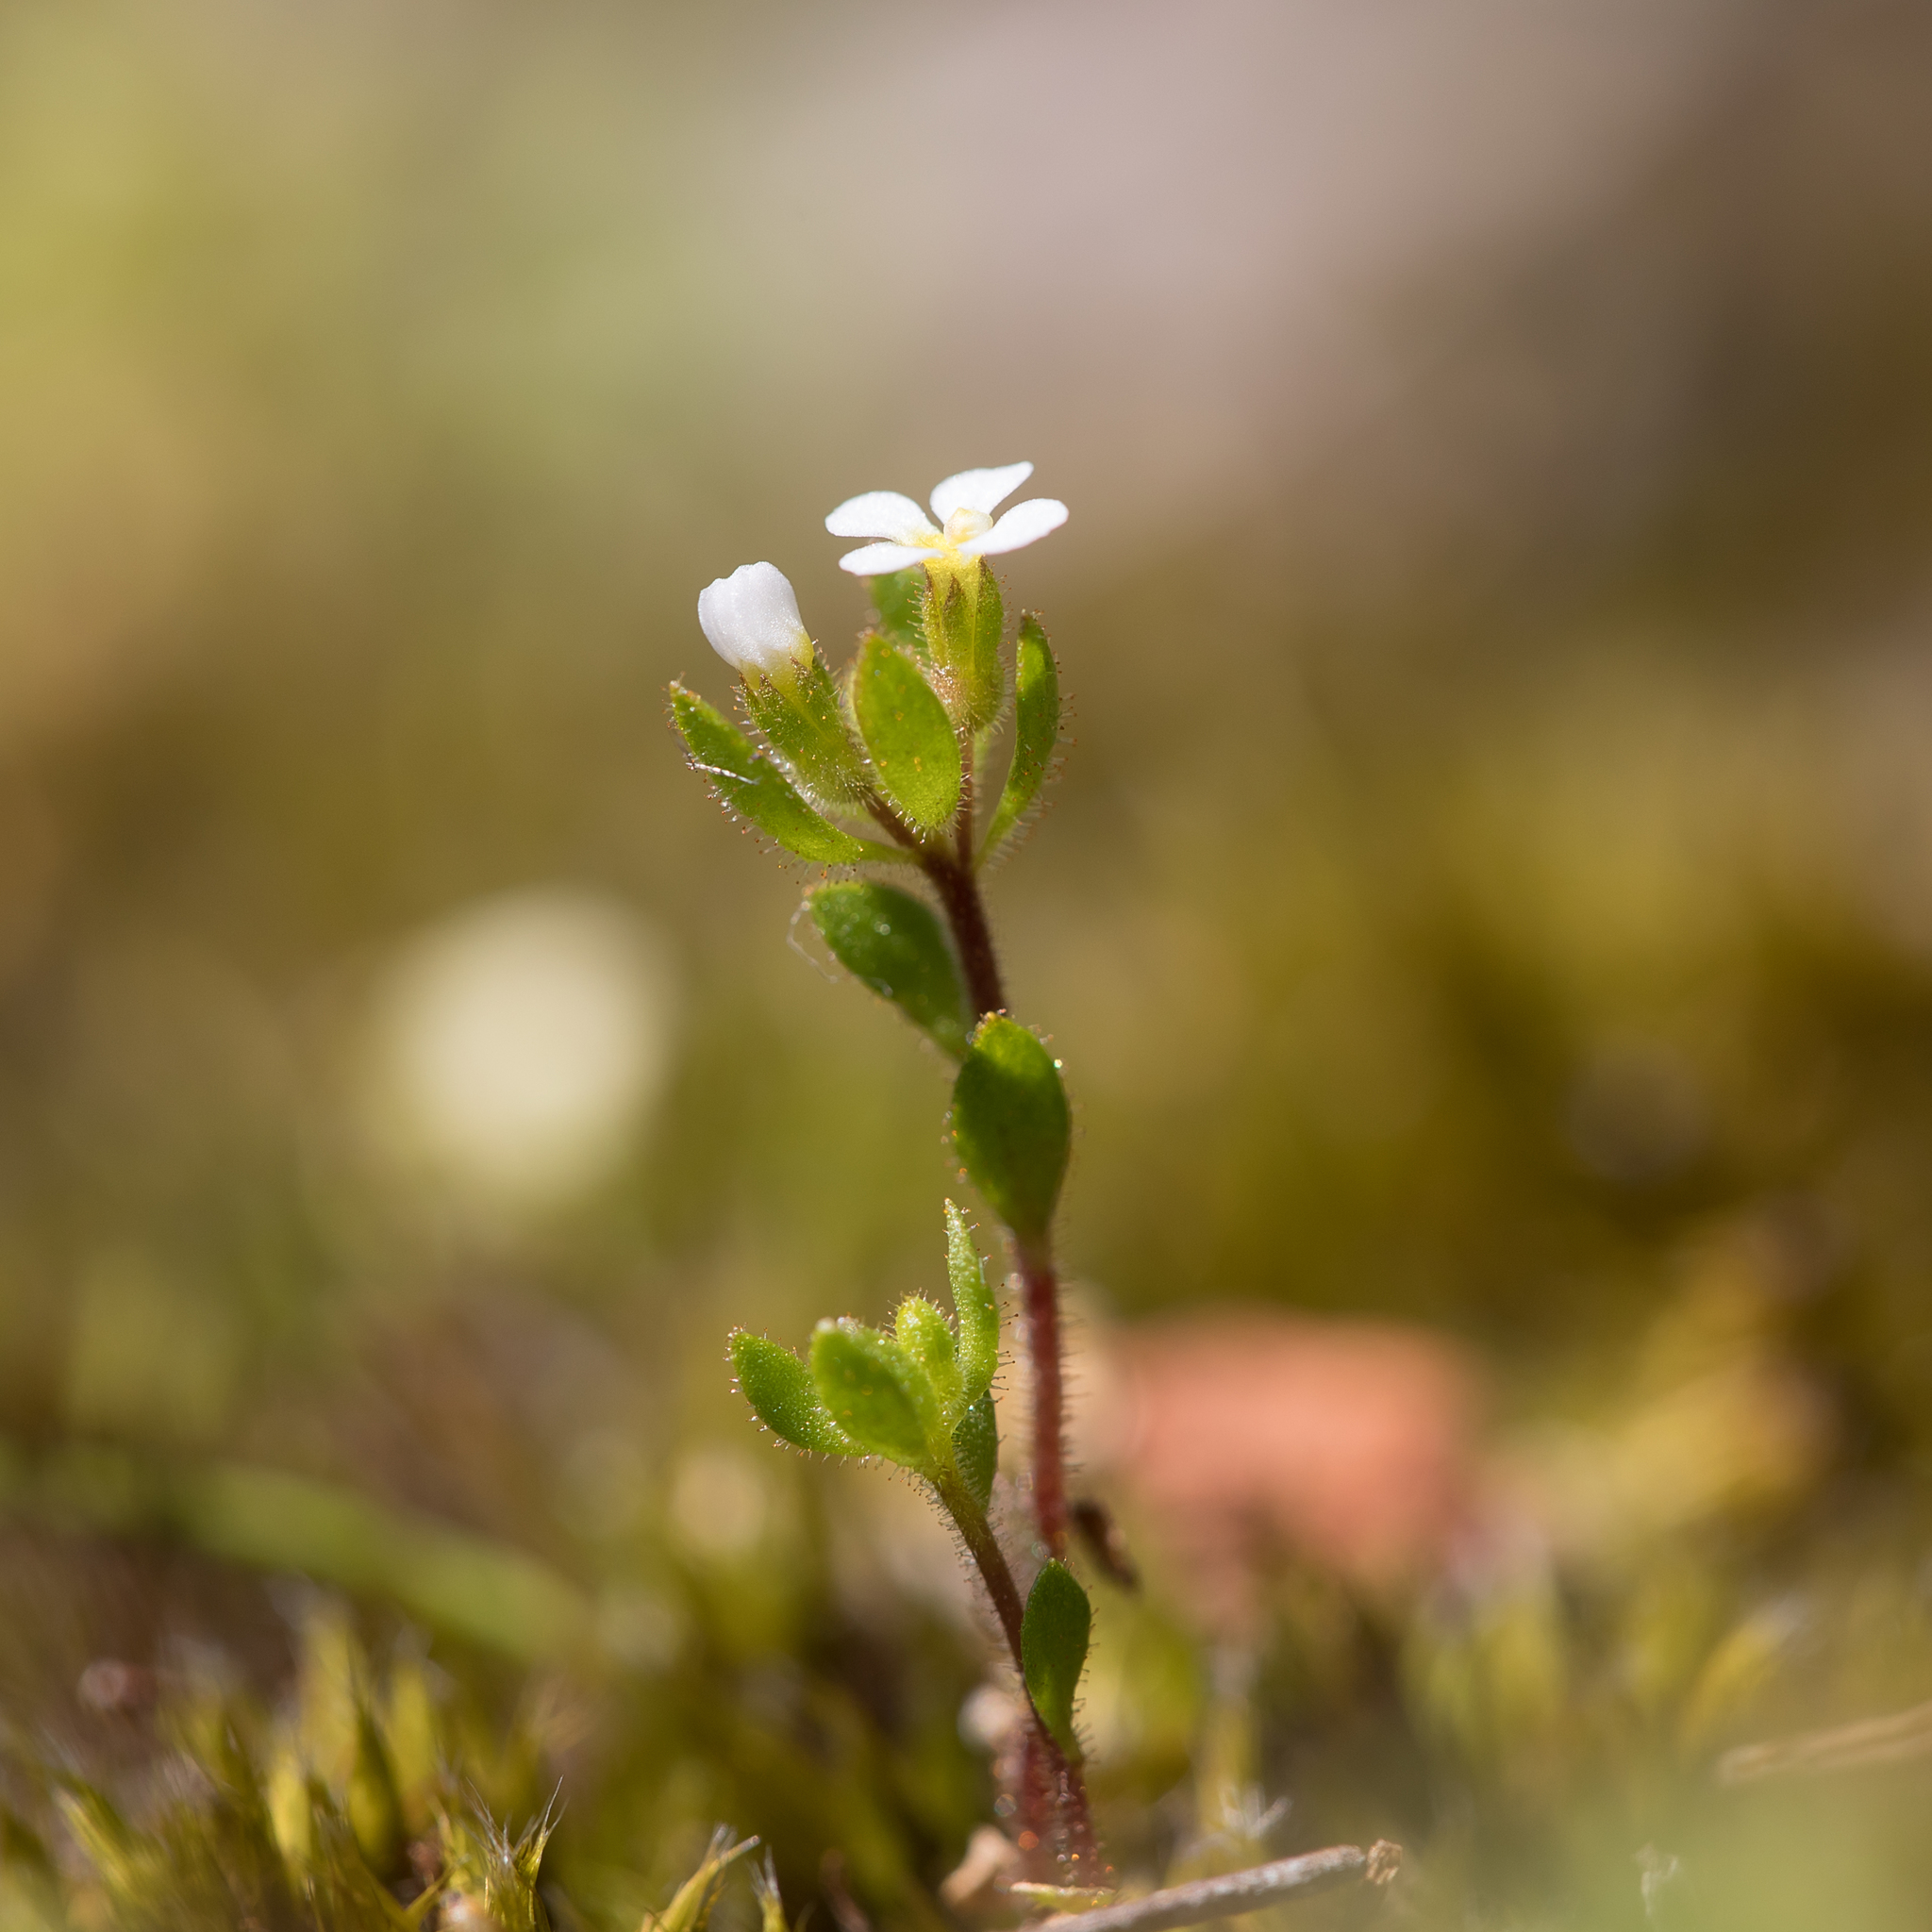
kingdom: Plantae
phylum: Tracheophyta
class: Magnoliopsida
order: Asterales
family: Stylidiaceae
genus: Levenhookia
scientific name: Levenhookia dubia
